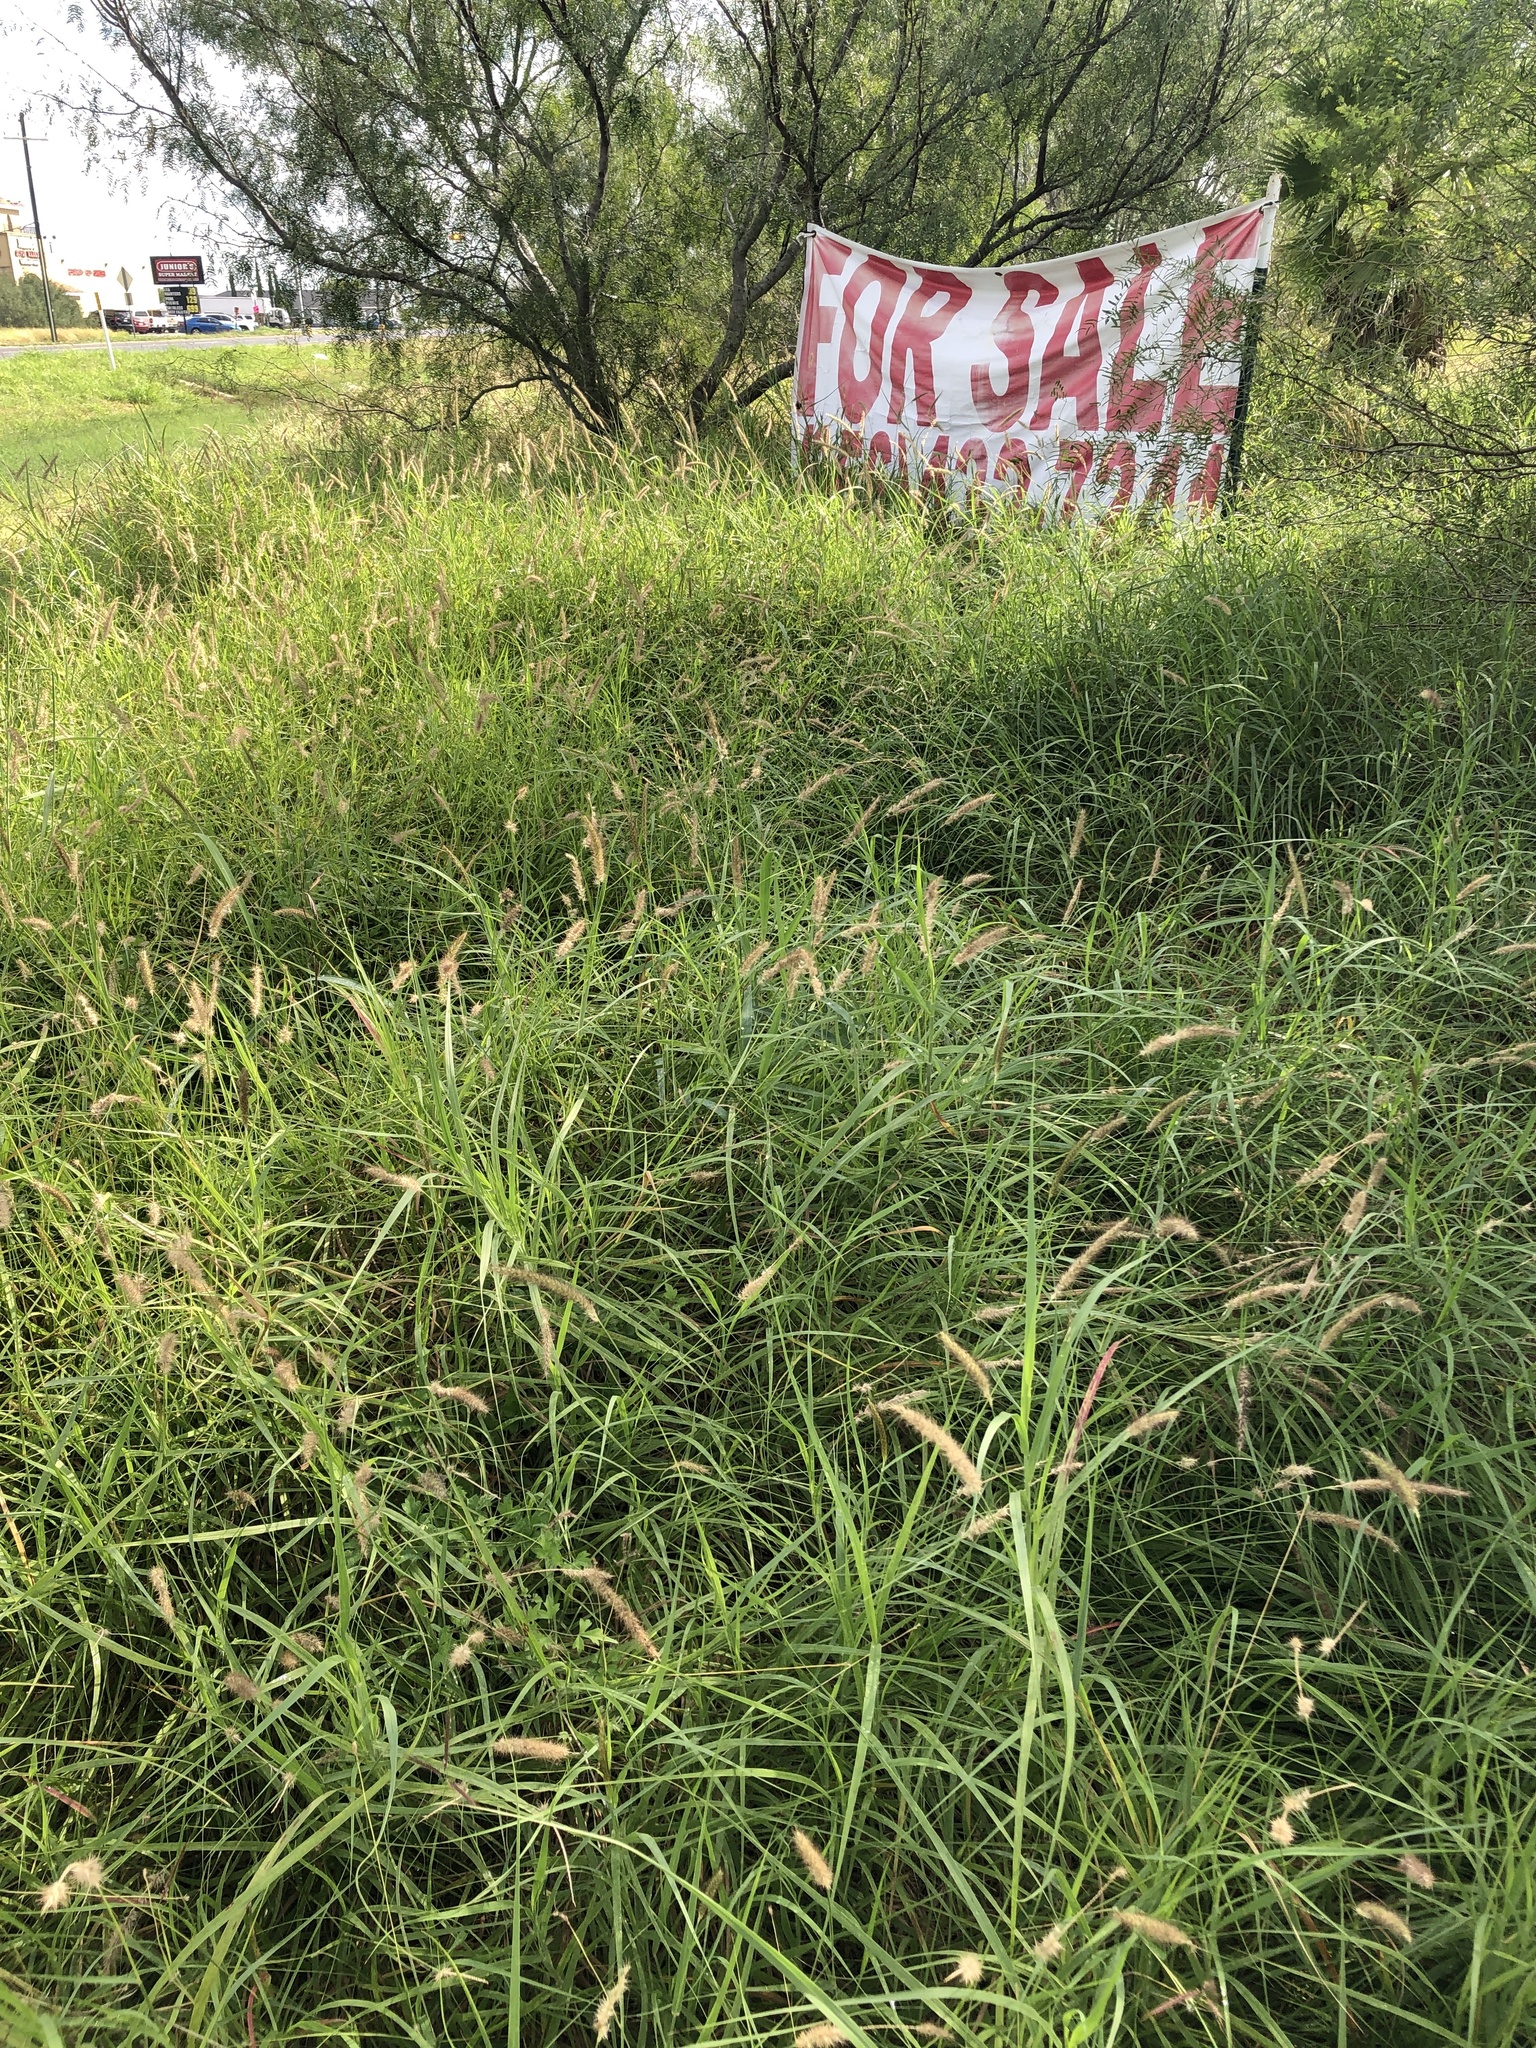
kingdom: Plantae
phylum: Tracheophyta
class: Liliopsida
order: Poales
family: Poaceae
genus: Cenchrus
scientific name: Cenchrus ciliaris
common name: Buffelgrass
